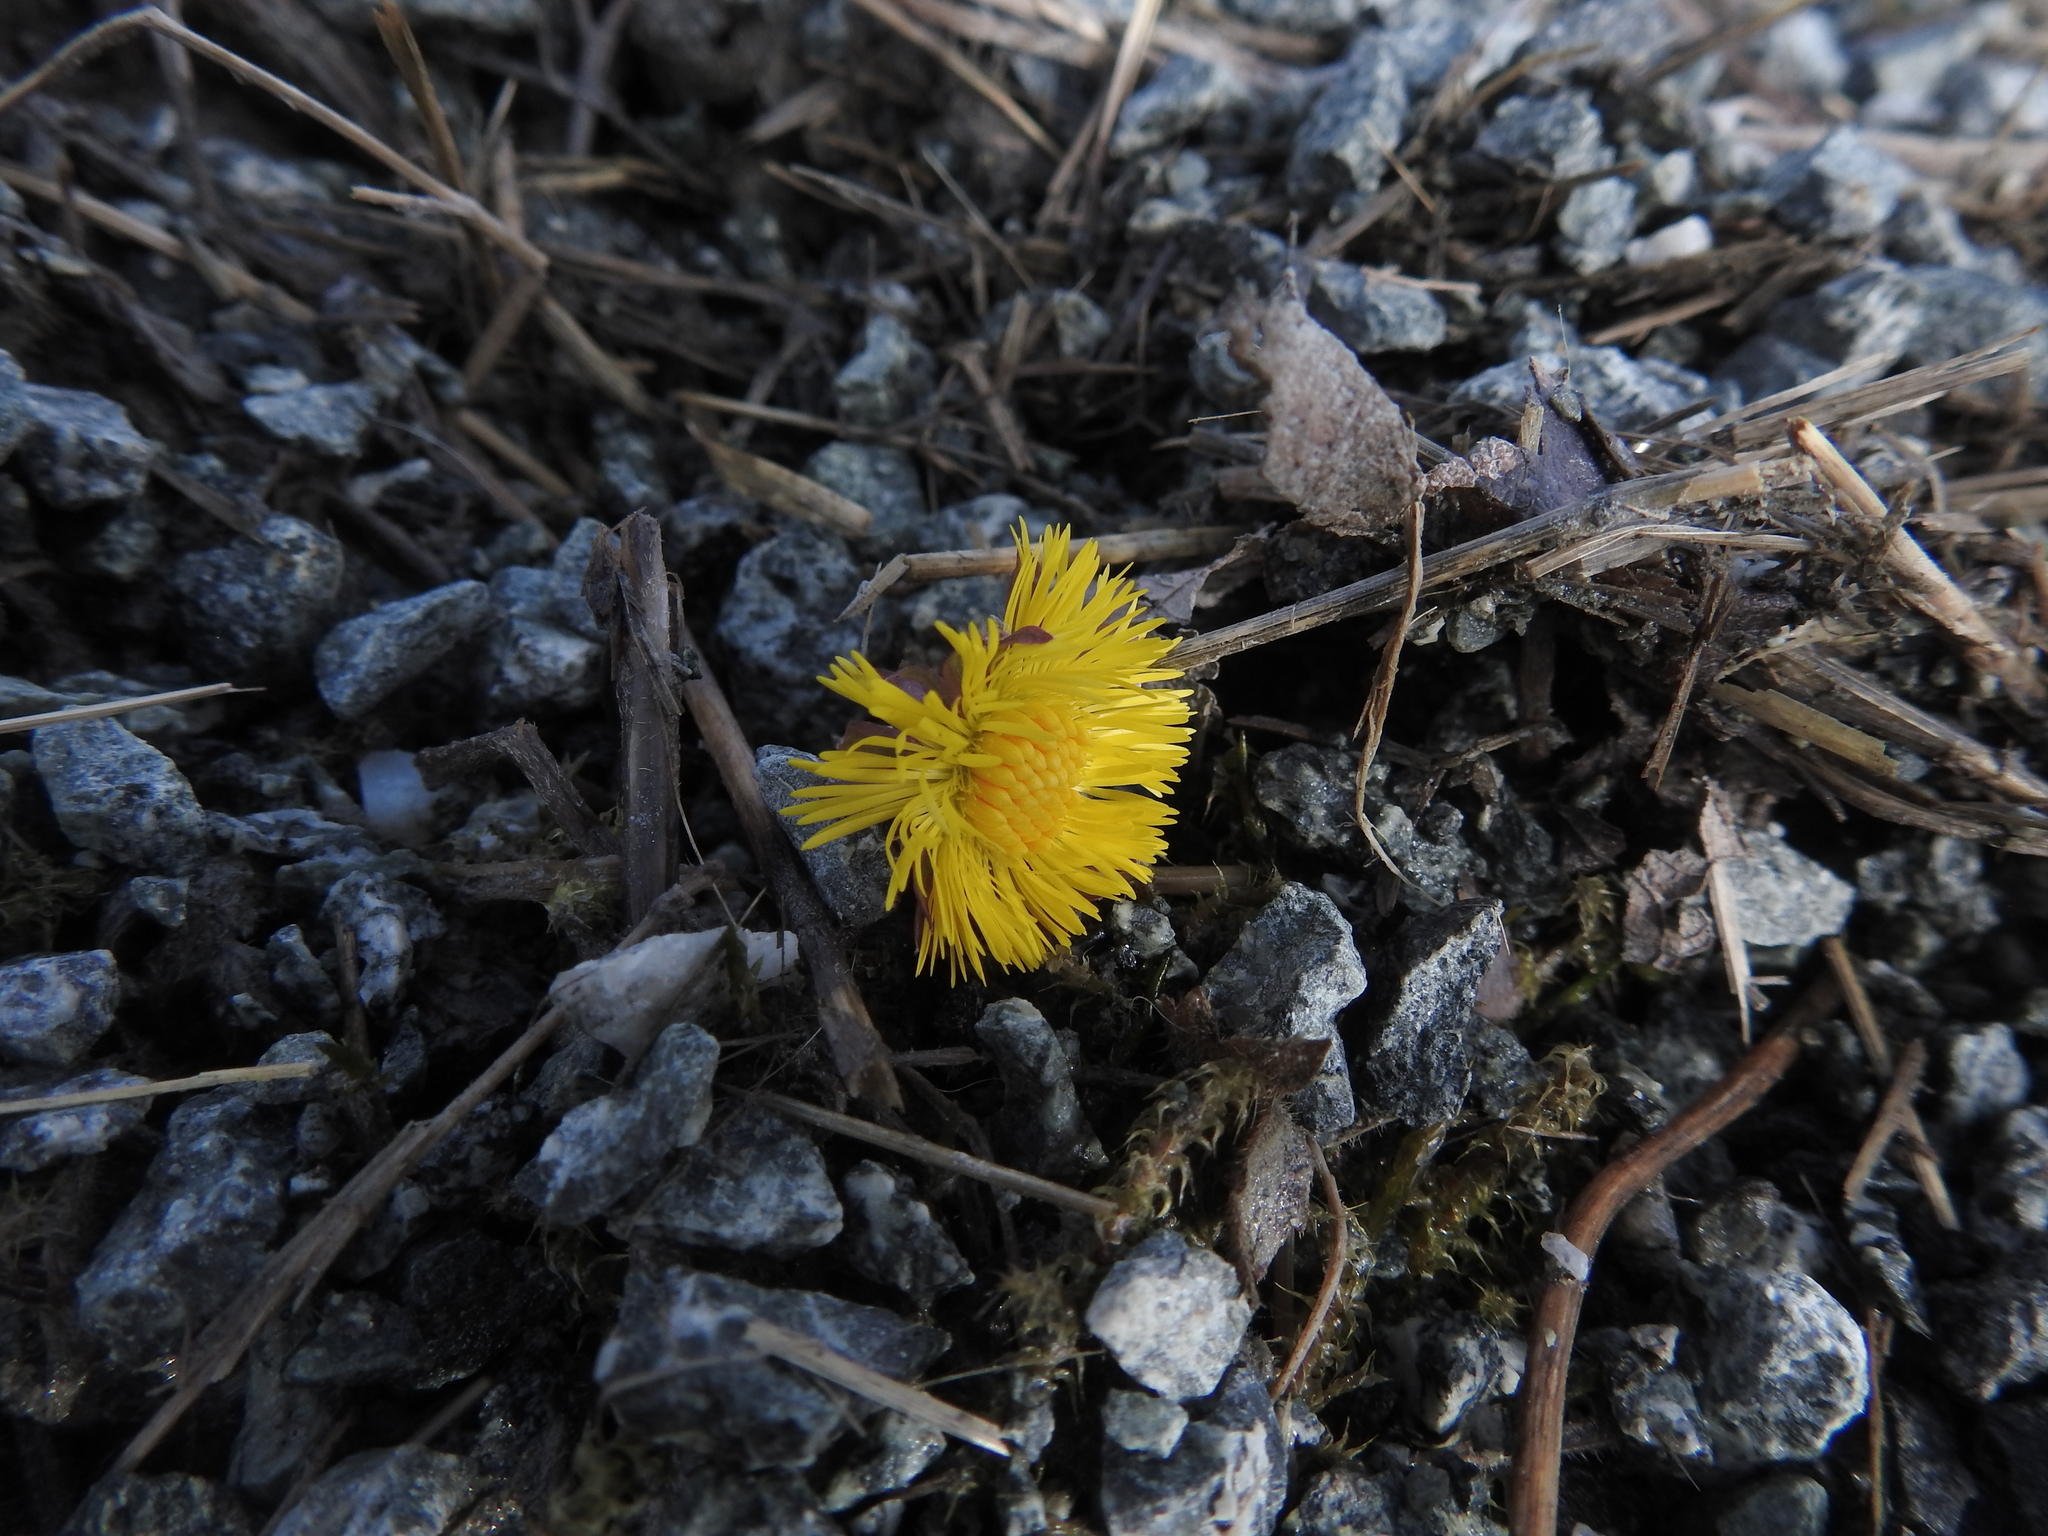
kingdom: Plantae
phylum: Tracheophyta
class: Magnoliopsida
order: Asterales
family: Asteraceae
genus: Tussilago
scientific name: Tussilago farfara
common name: Coltsfoot
